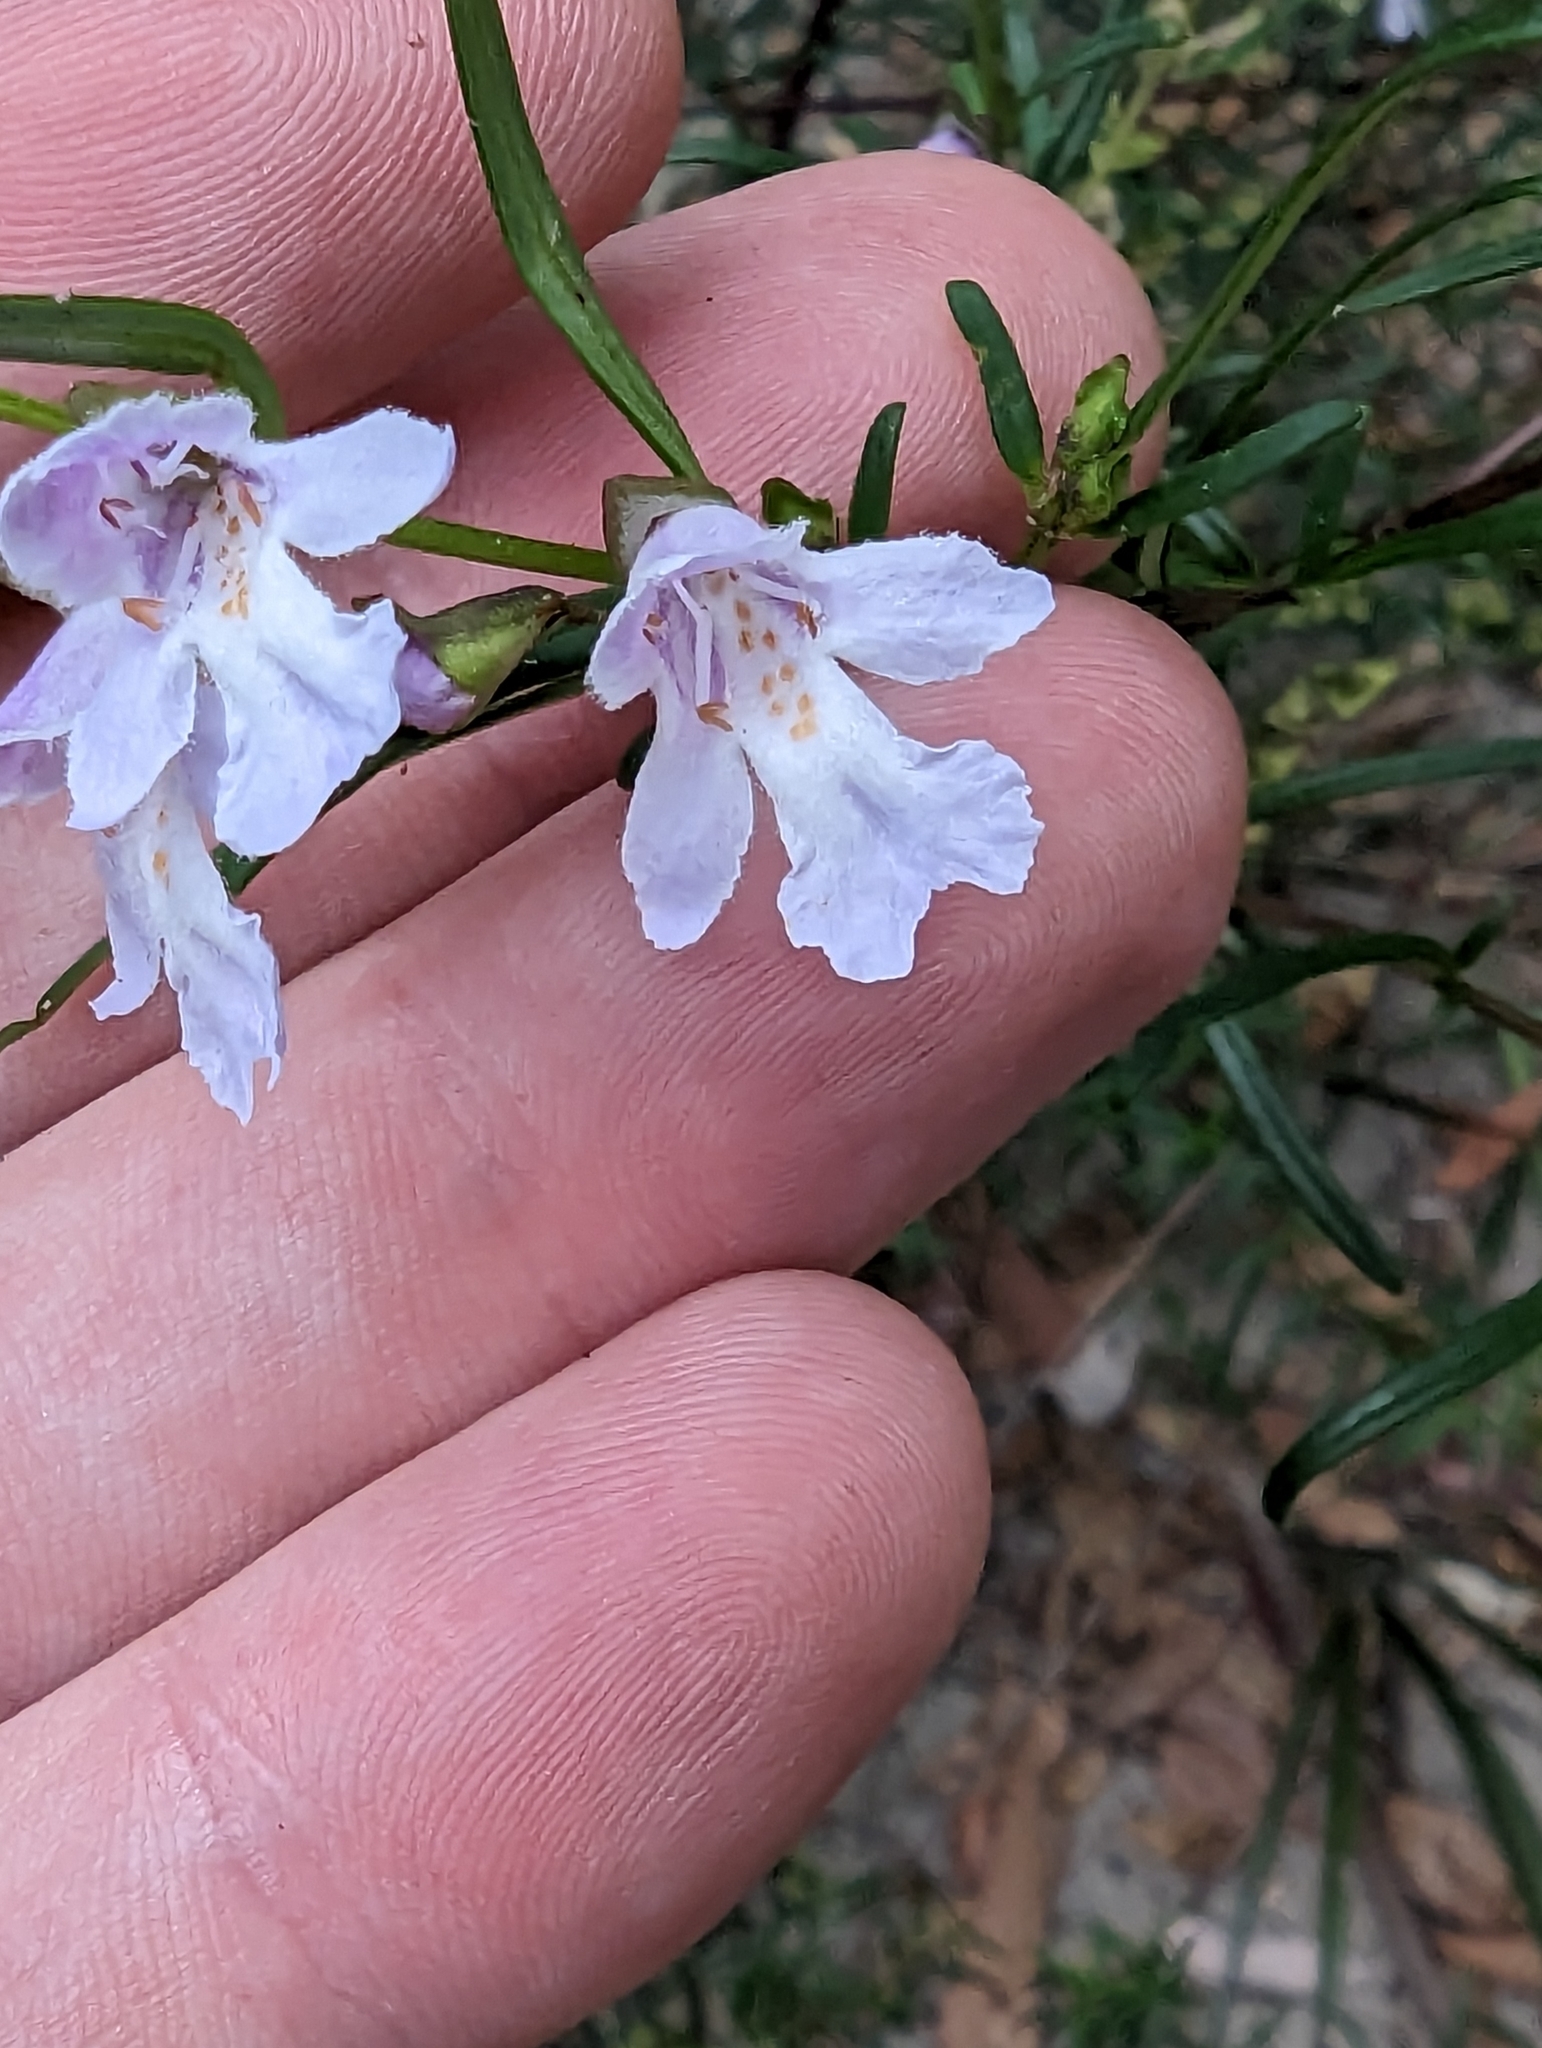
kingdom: Plantae
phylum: Tracheophyta
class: Magnoliopsida
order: Lamiales
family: Lamiaceae
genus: Prostanthera
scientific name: Prostanthera linearis
